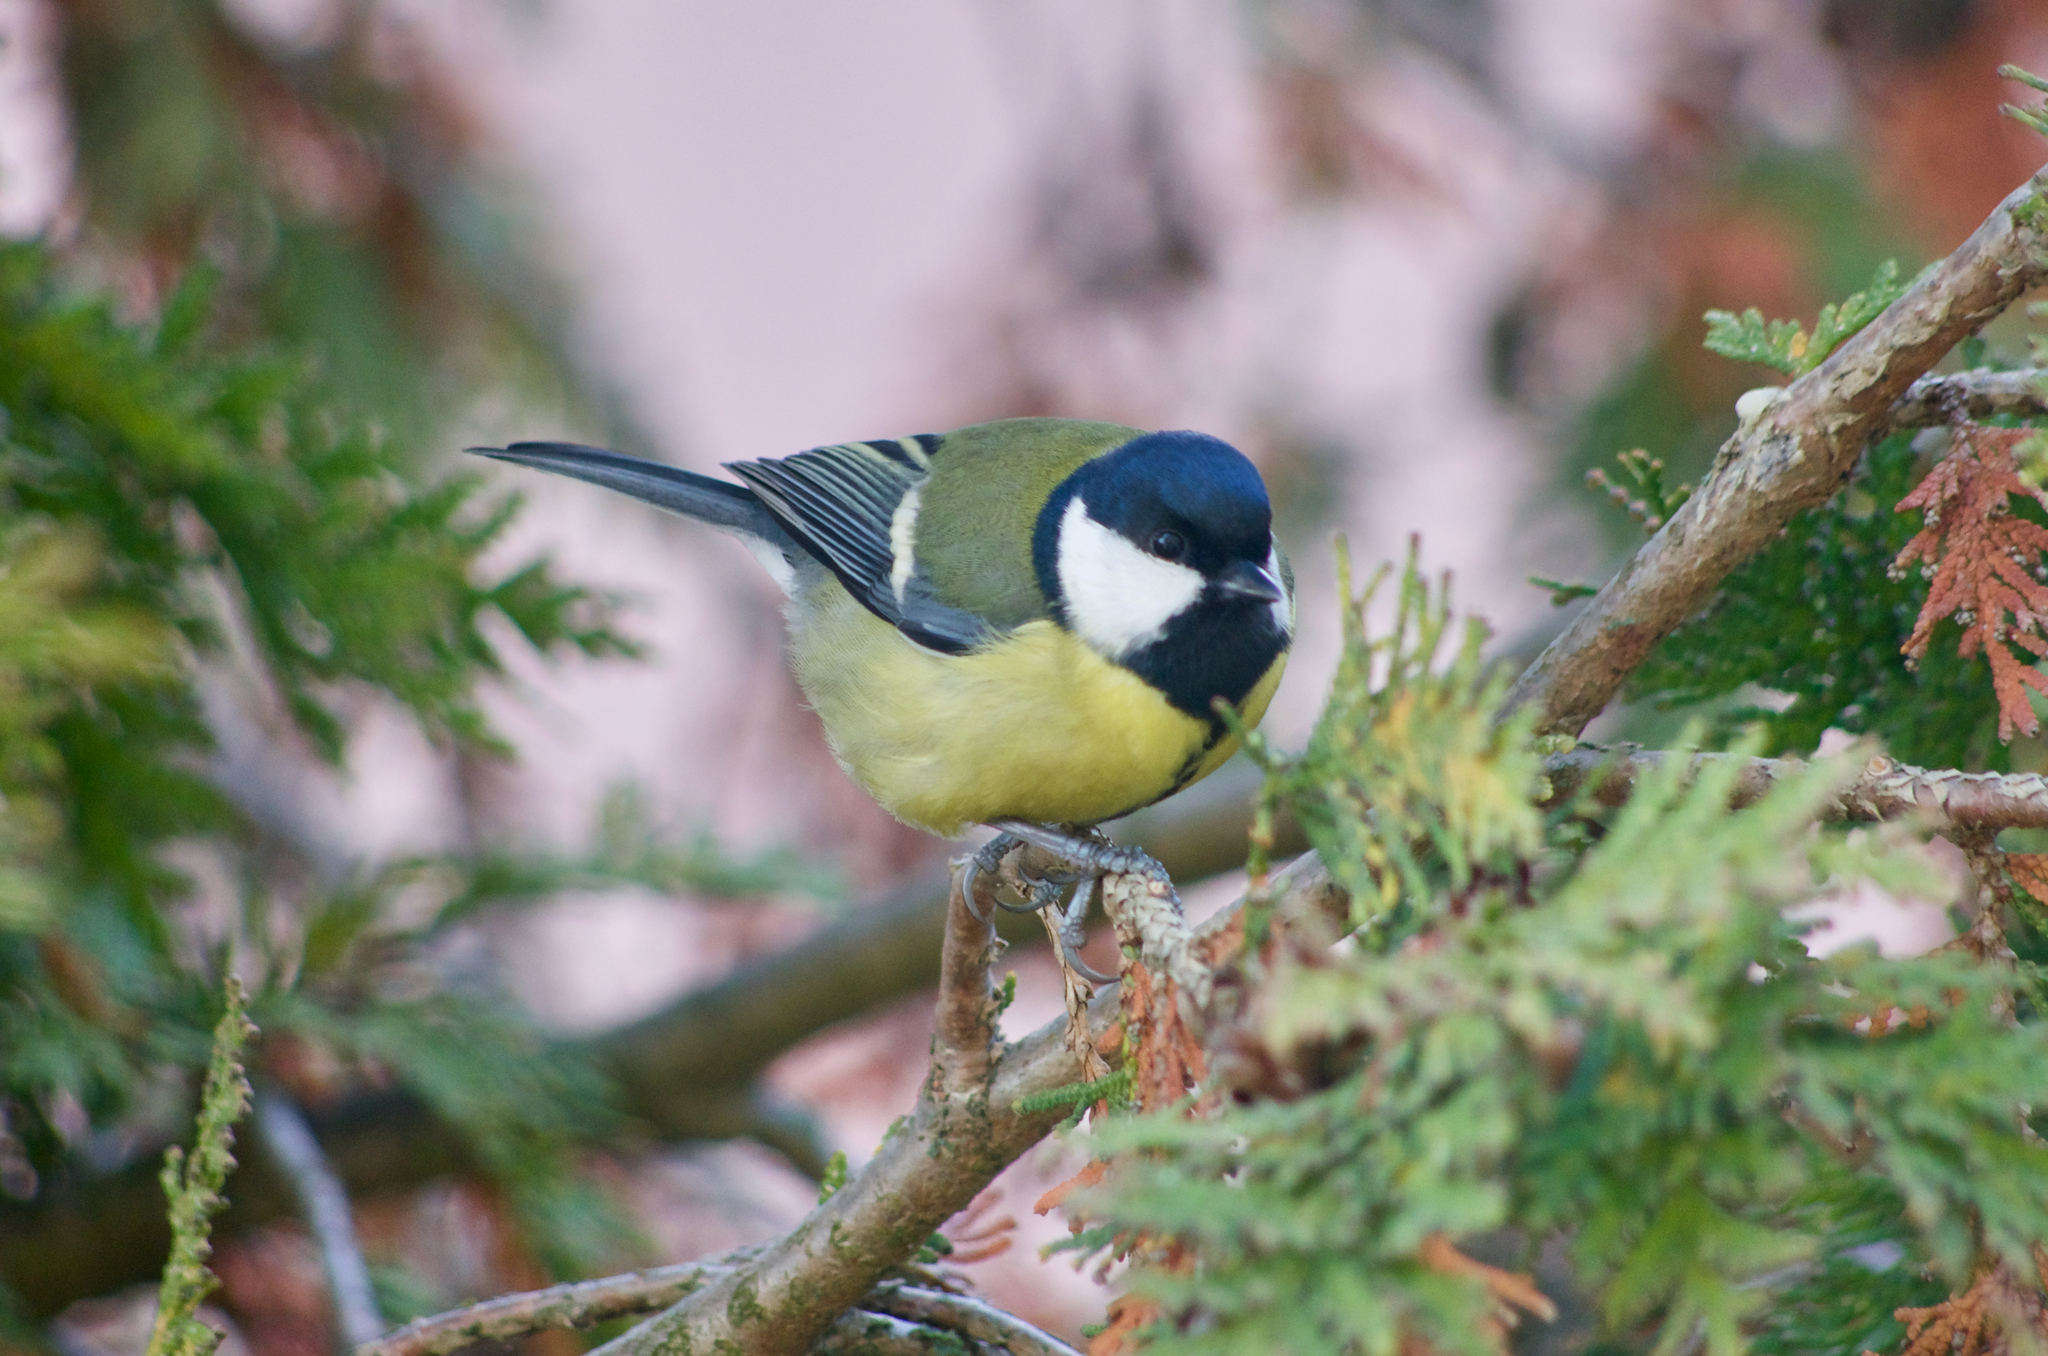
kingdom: Animalia
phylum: Chordata
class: Aves
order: Passeriformes
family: Paridae
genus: Parus
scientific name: Parus major
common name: Great tit
